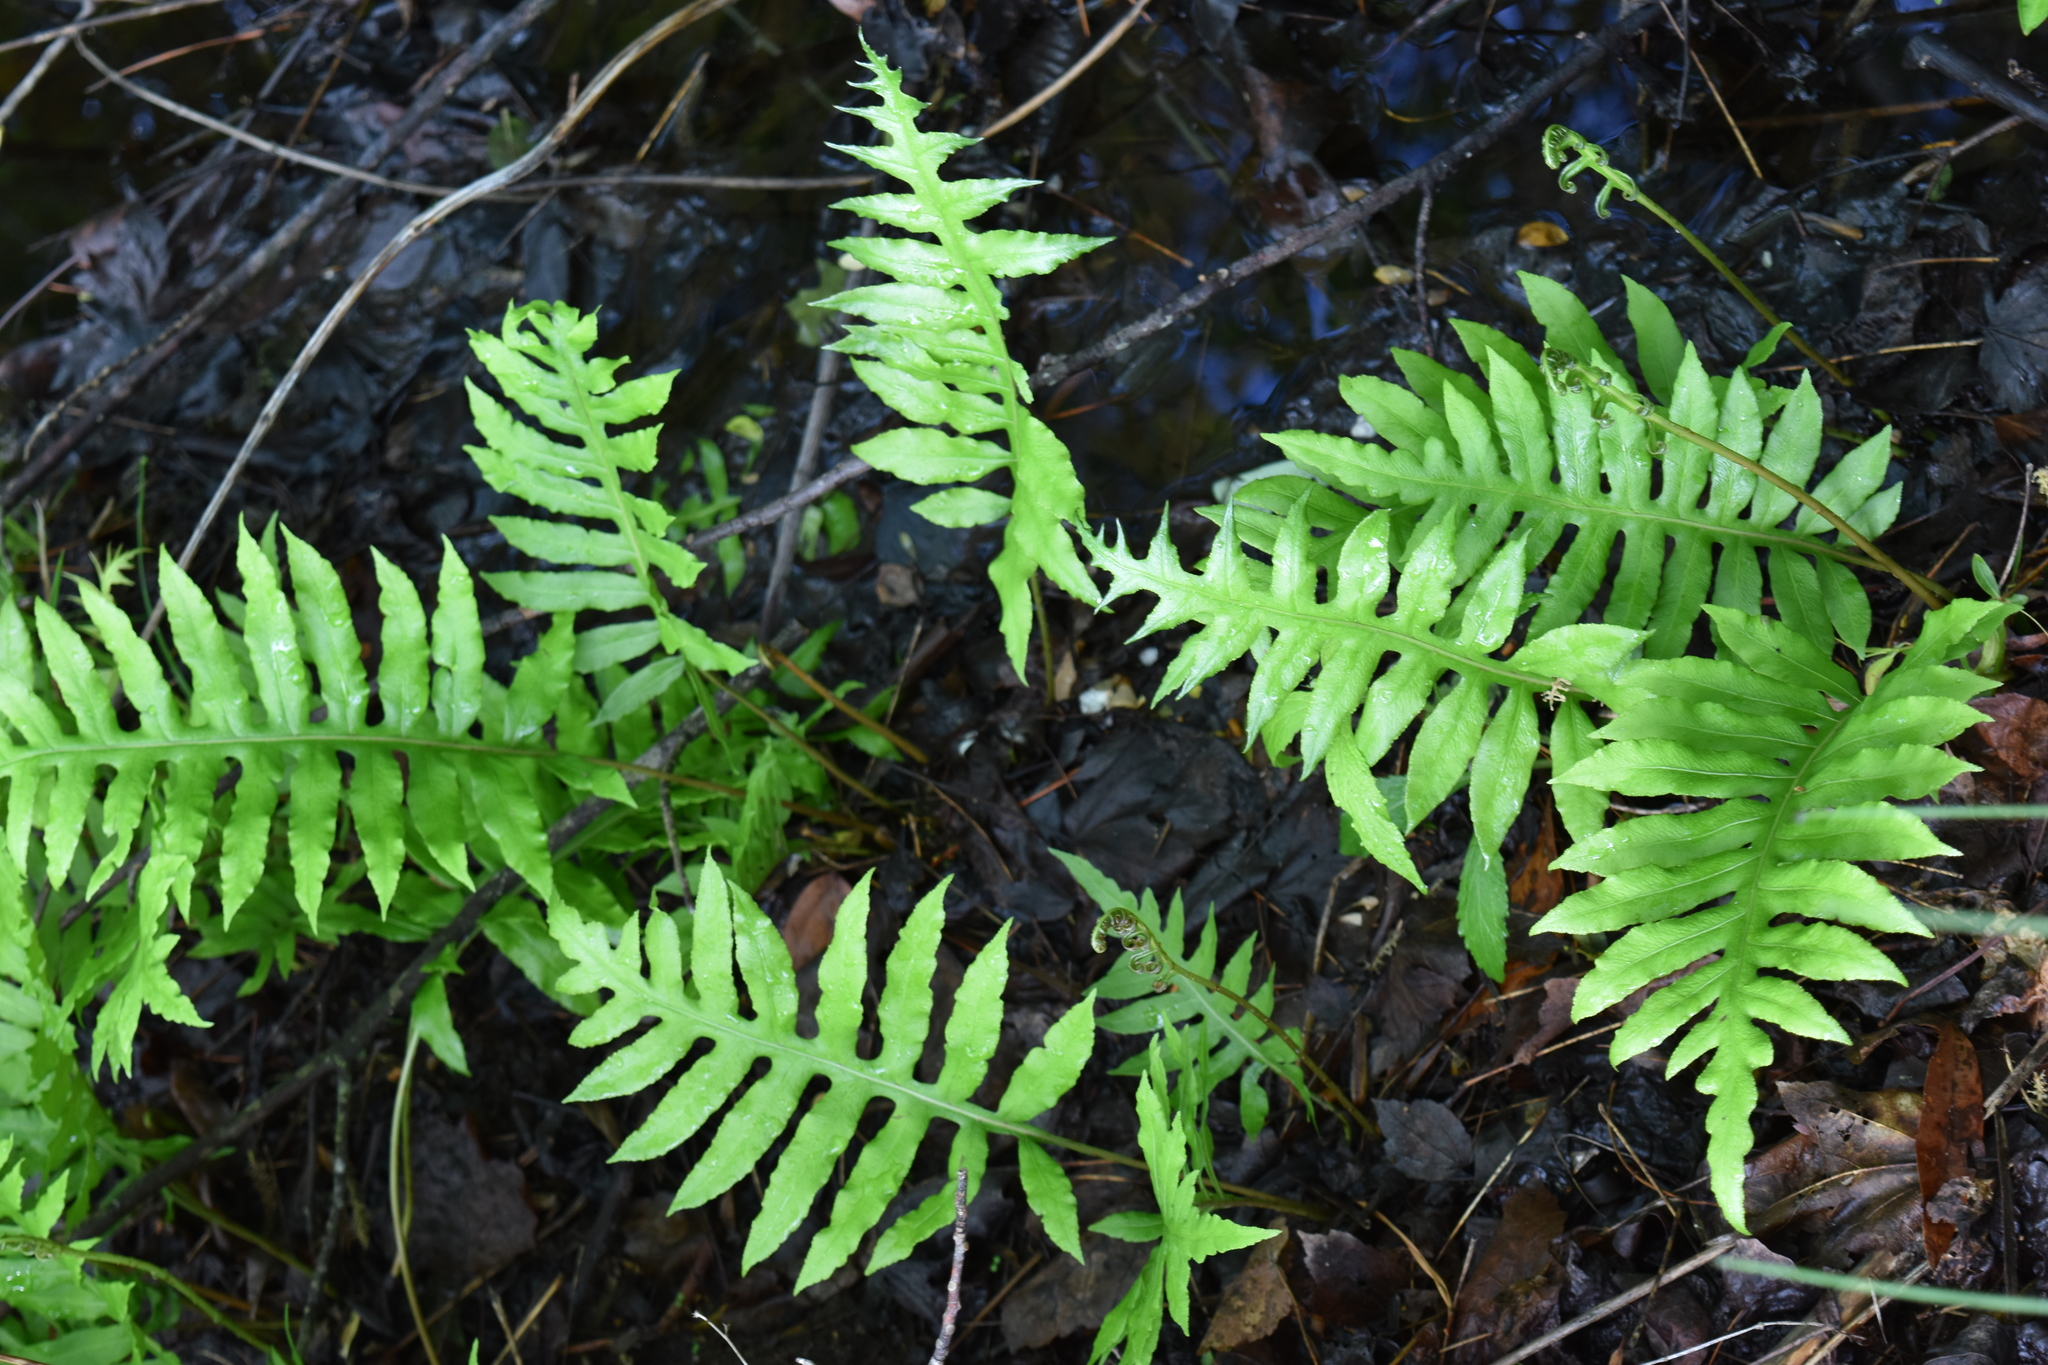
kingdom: Plantae
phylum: Tracheophyta
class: Polypodiopsida
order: Polypodiales
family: Blechnaceae
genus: Lorinseria
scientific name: Lorinseria areolata
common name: Dwarf chain fern
